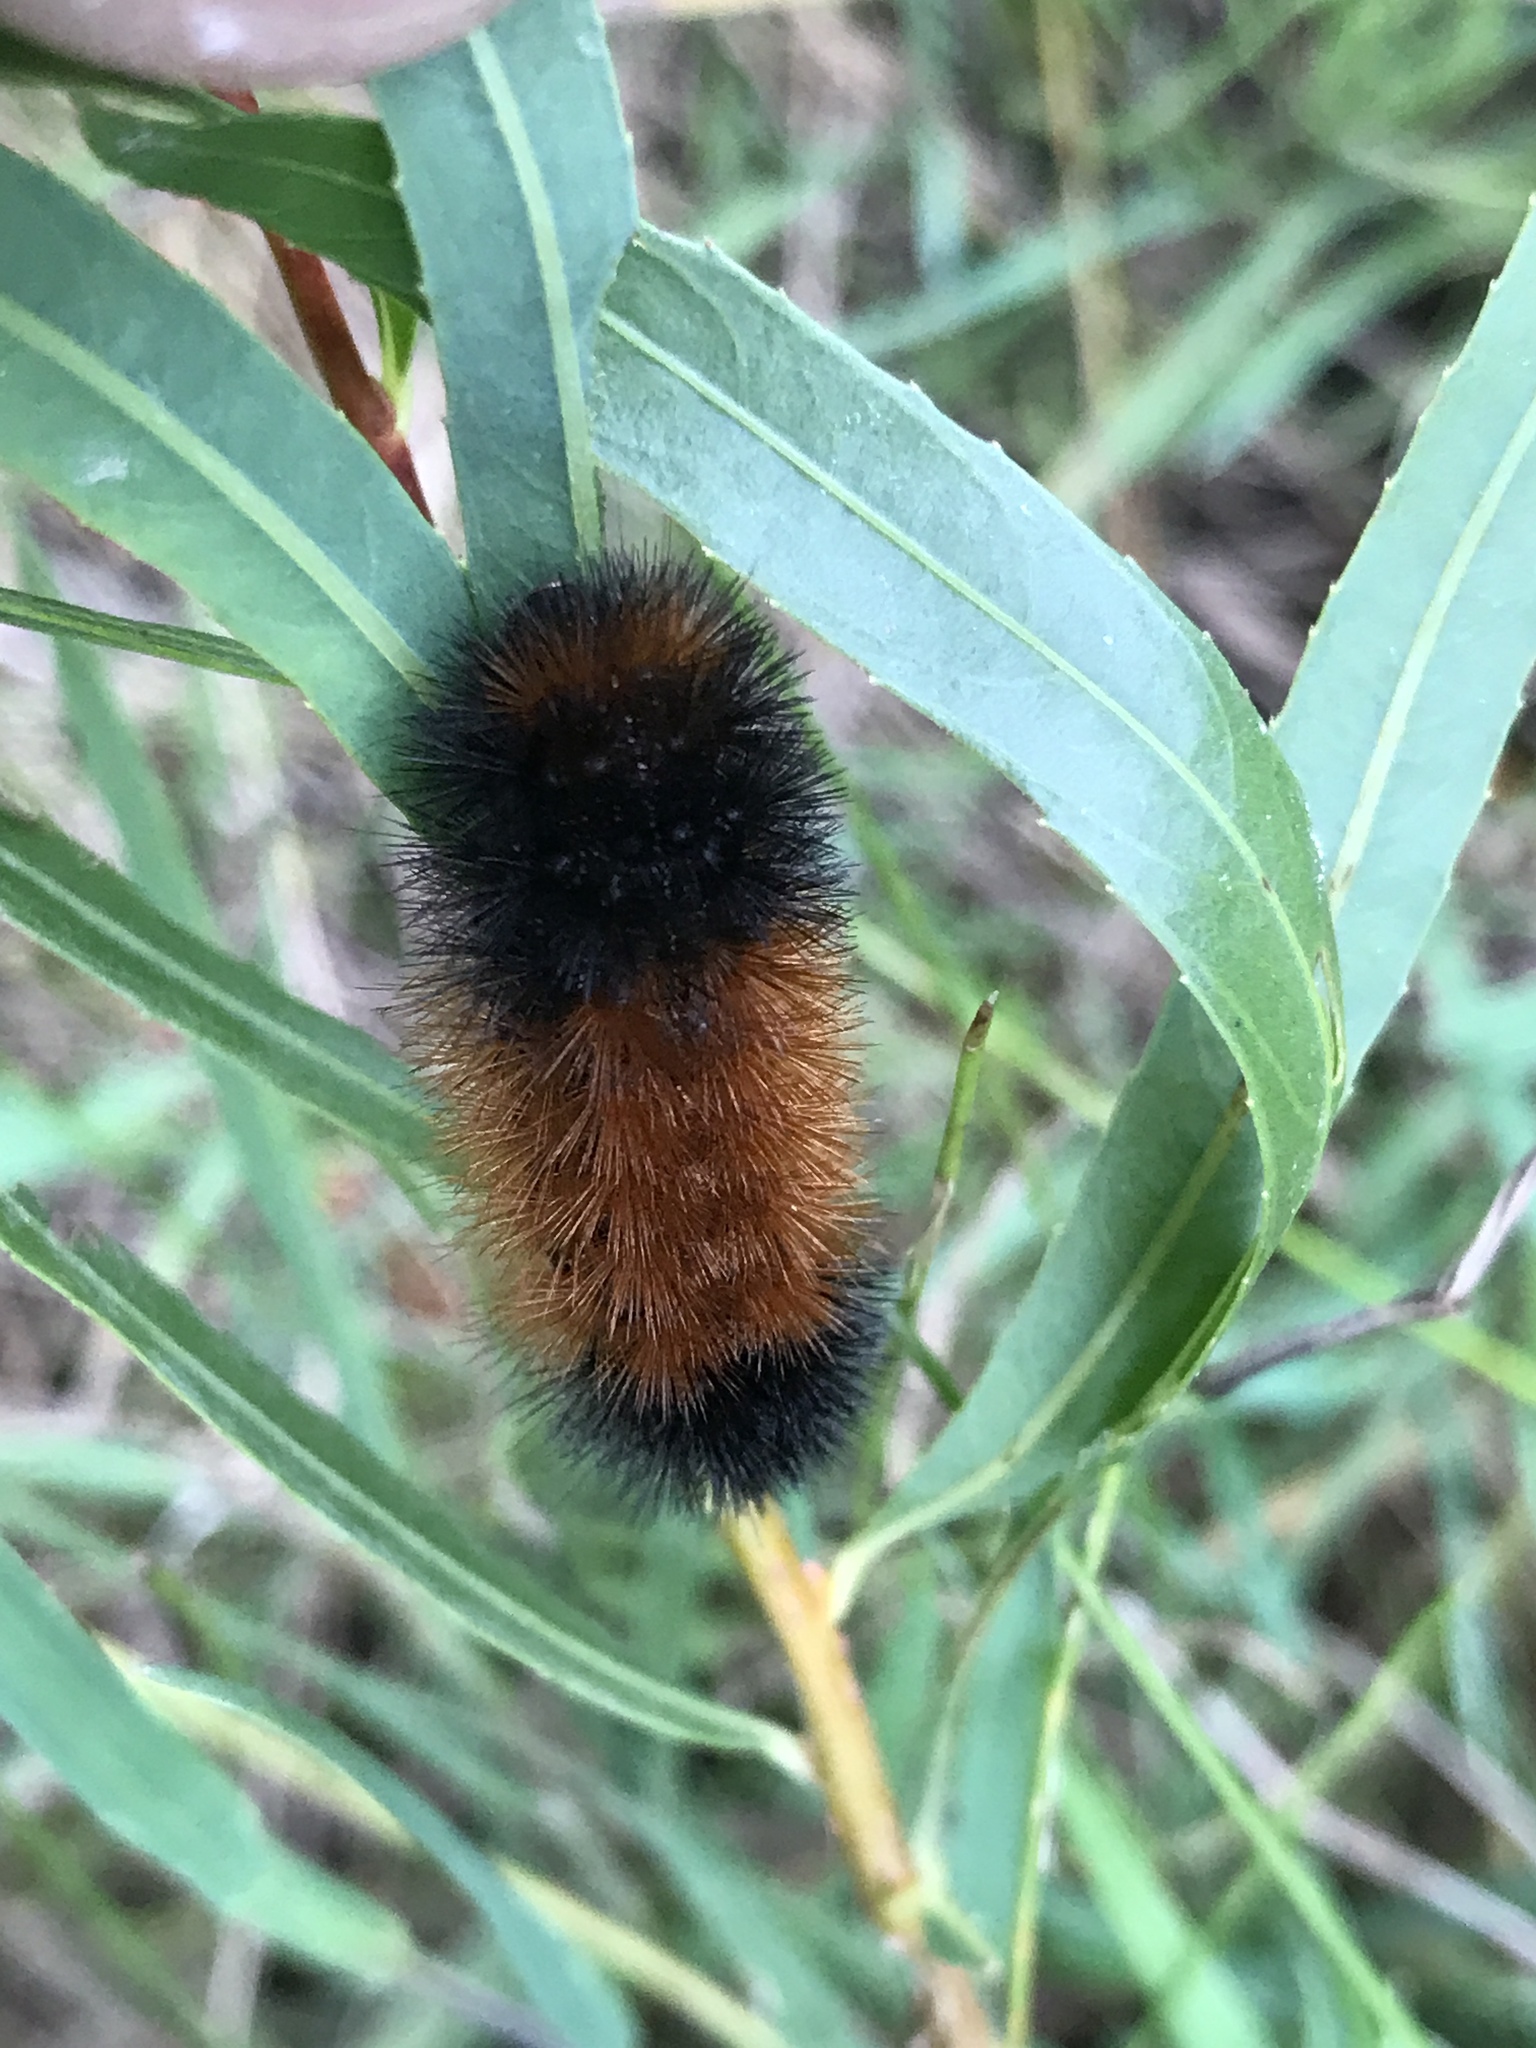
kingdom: Animalia
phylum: Arthropoda
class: Insecta
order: Lepidoptera
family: Erebidae
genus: Pyrrharctia
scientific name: Pyrrharctia isabella
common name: Isabella tiger moth
